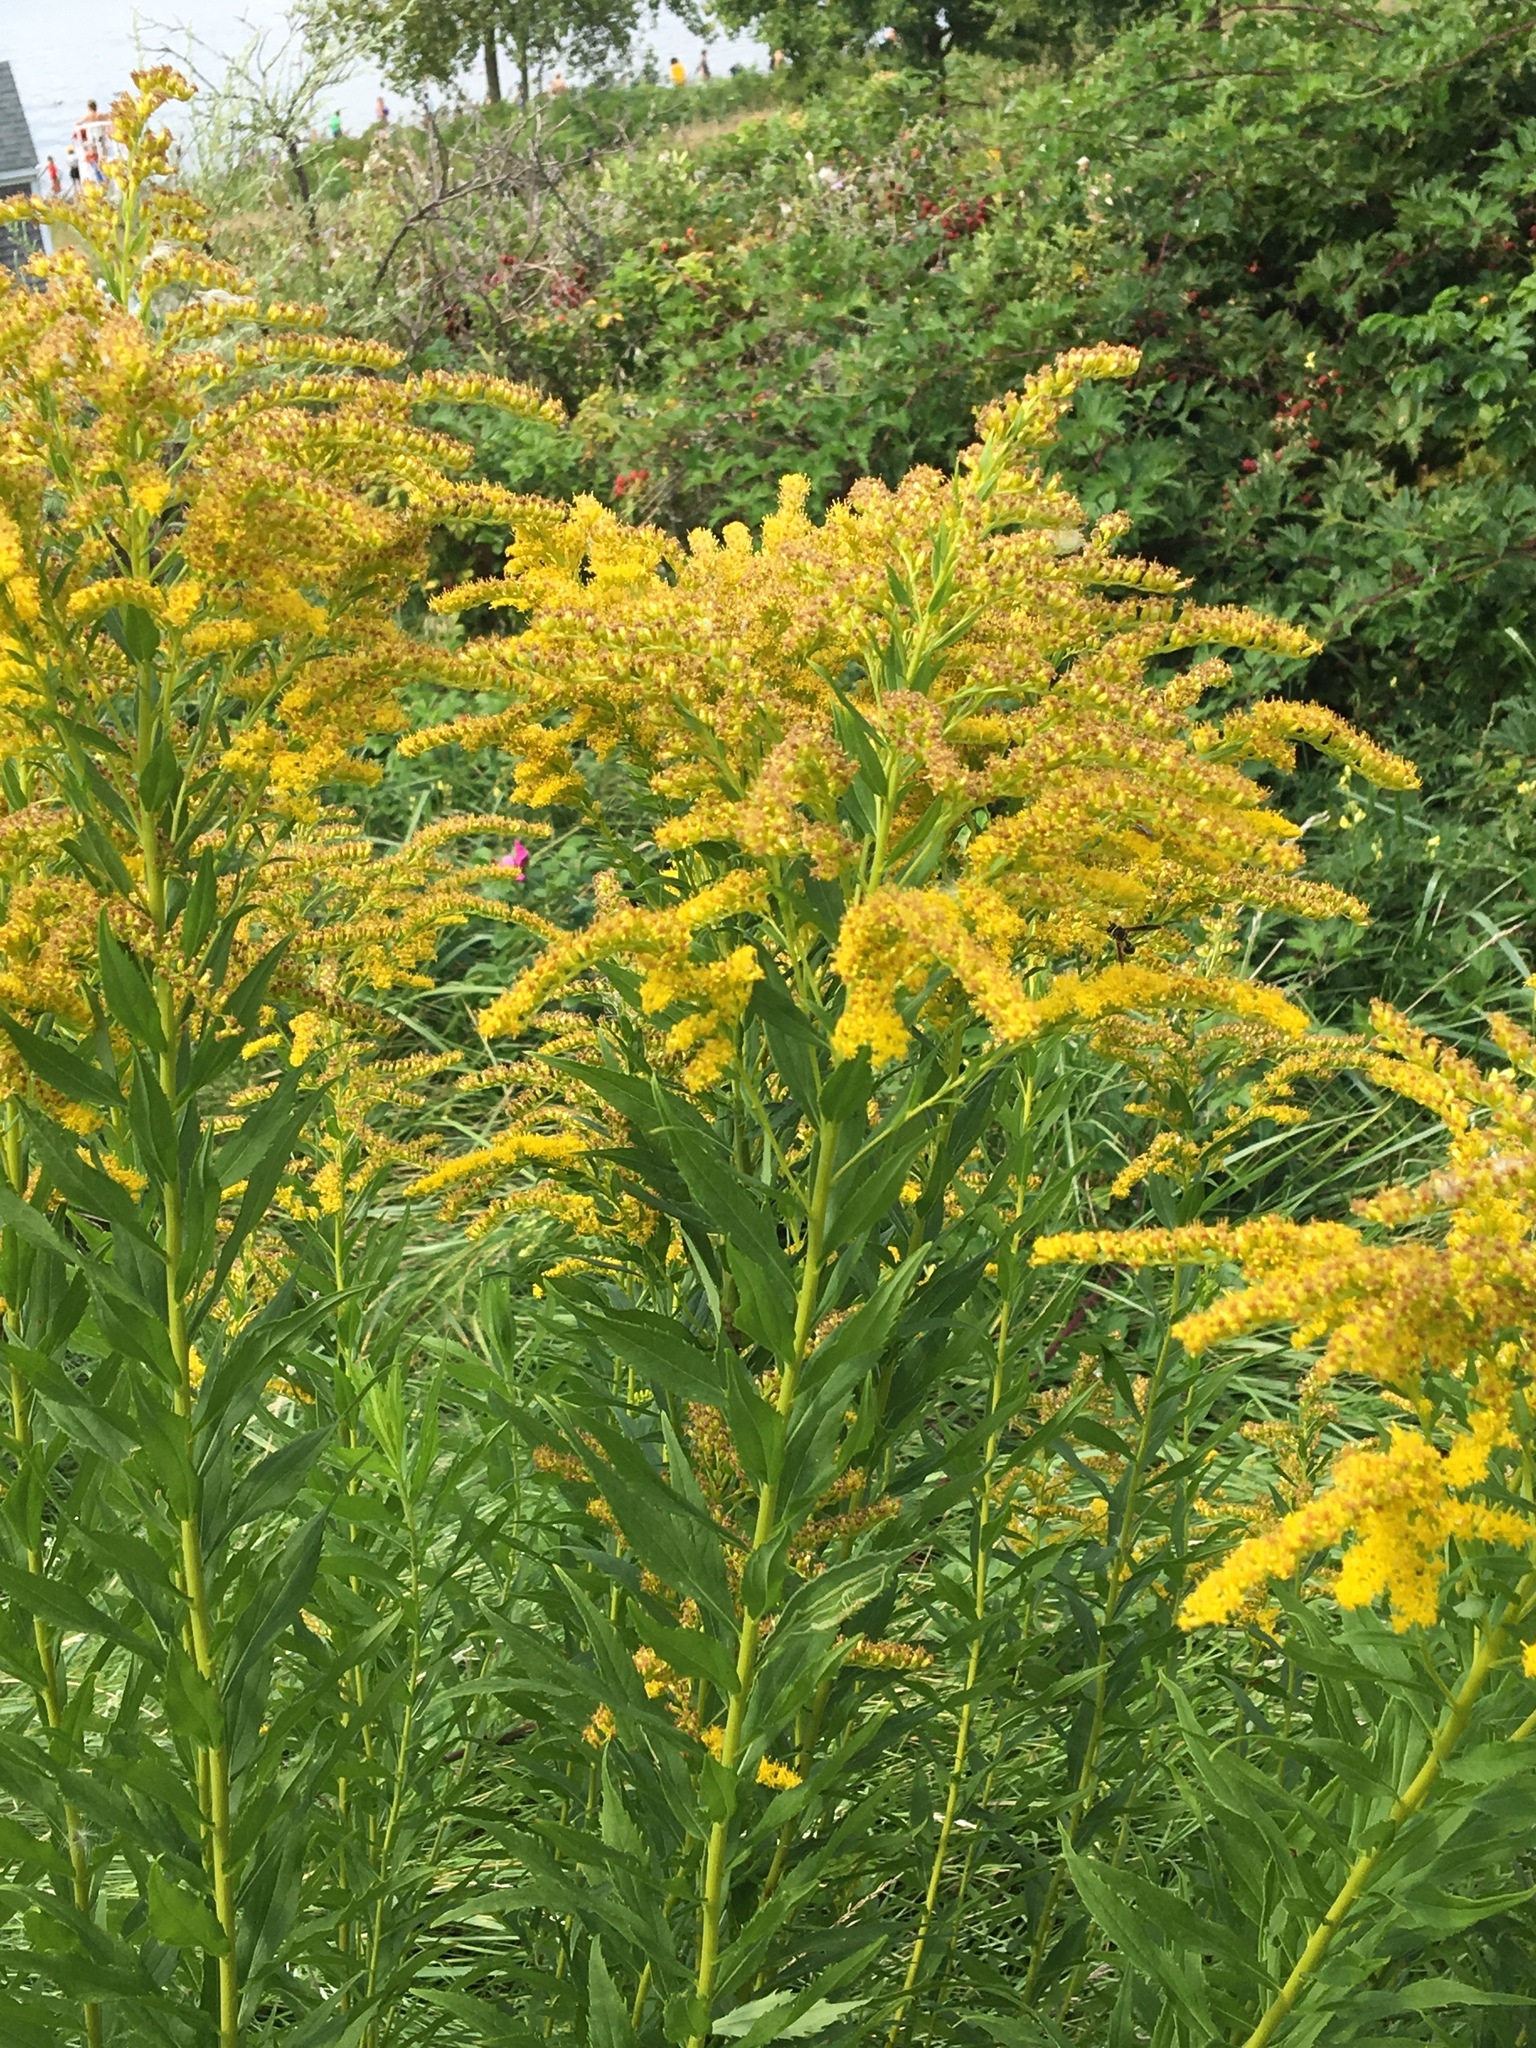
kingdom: Plantae
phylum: Tracheophyta
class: Magnoliopsida
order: Asterales
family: Asteraceae
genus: Solidago
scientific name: Solidago canadensis
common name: Canada goldenrod
